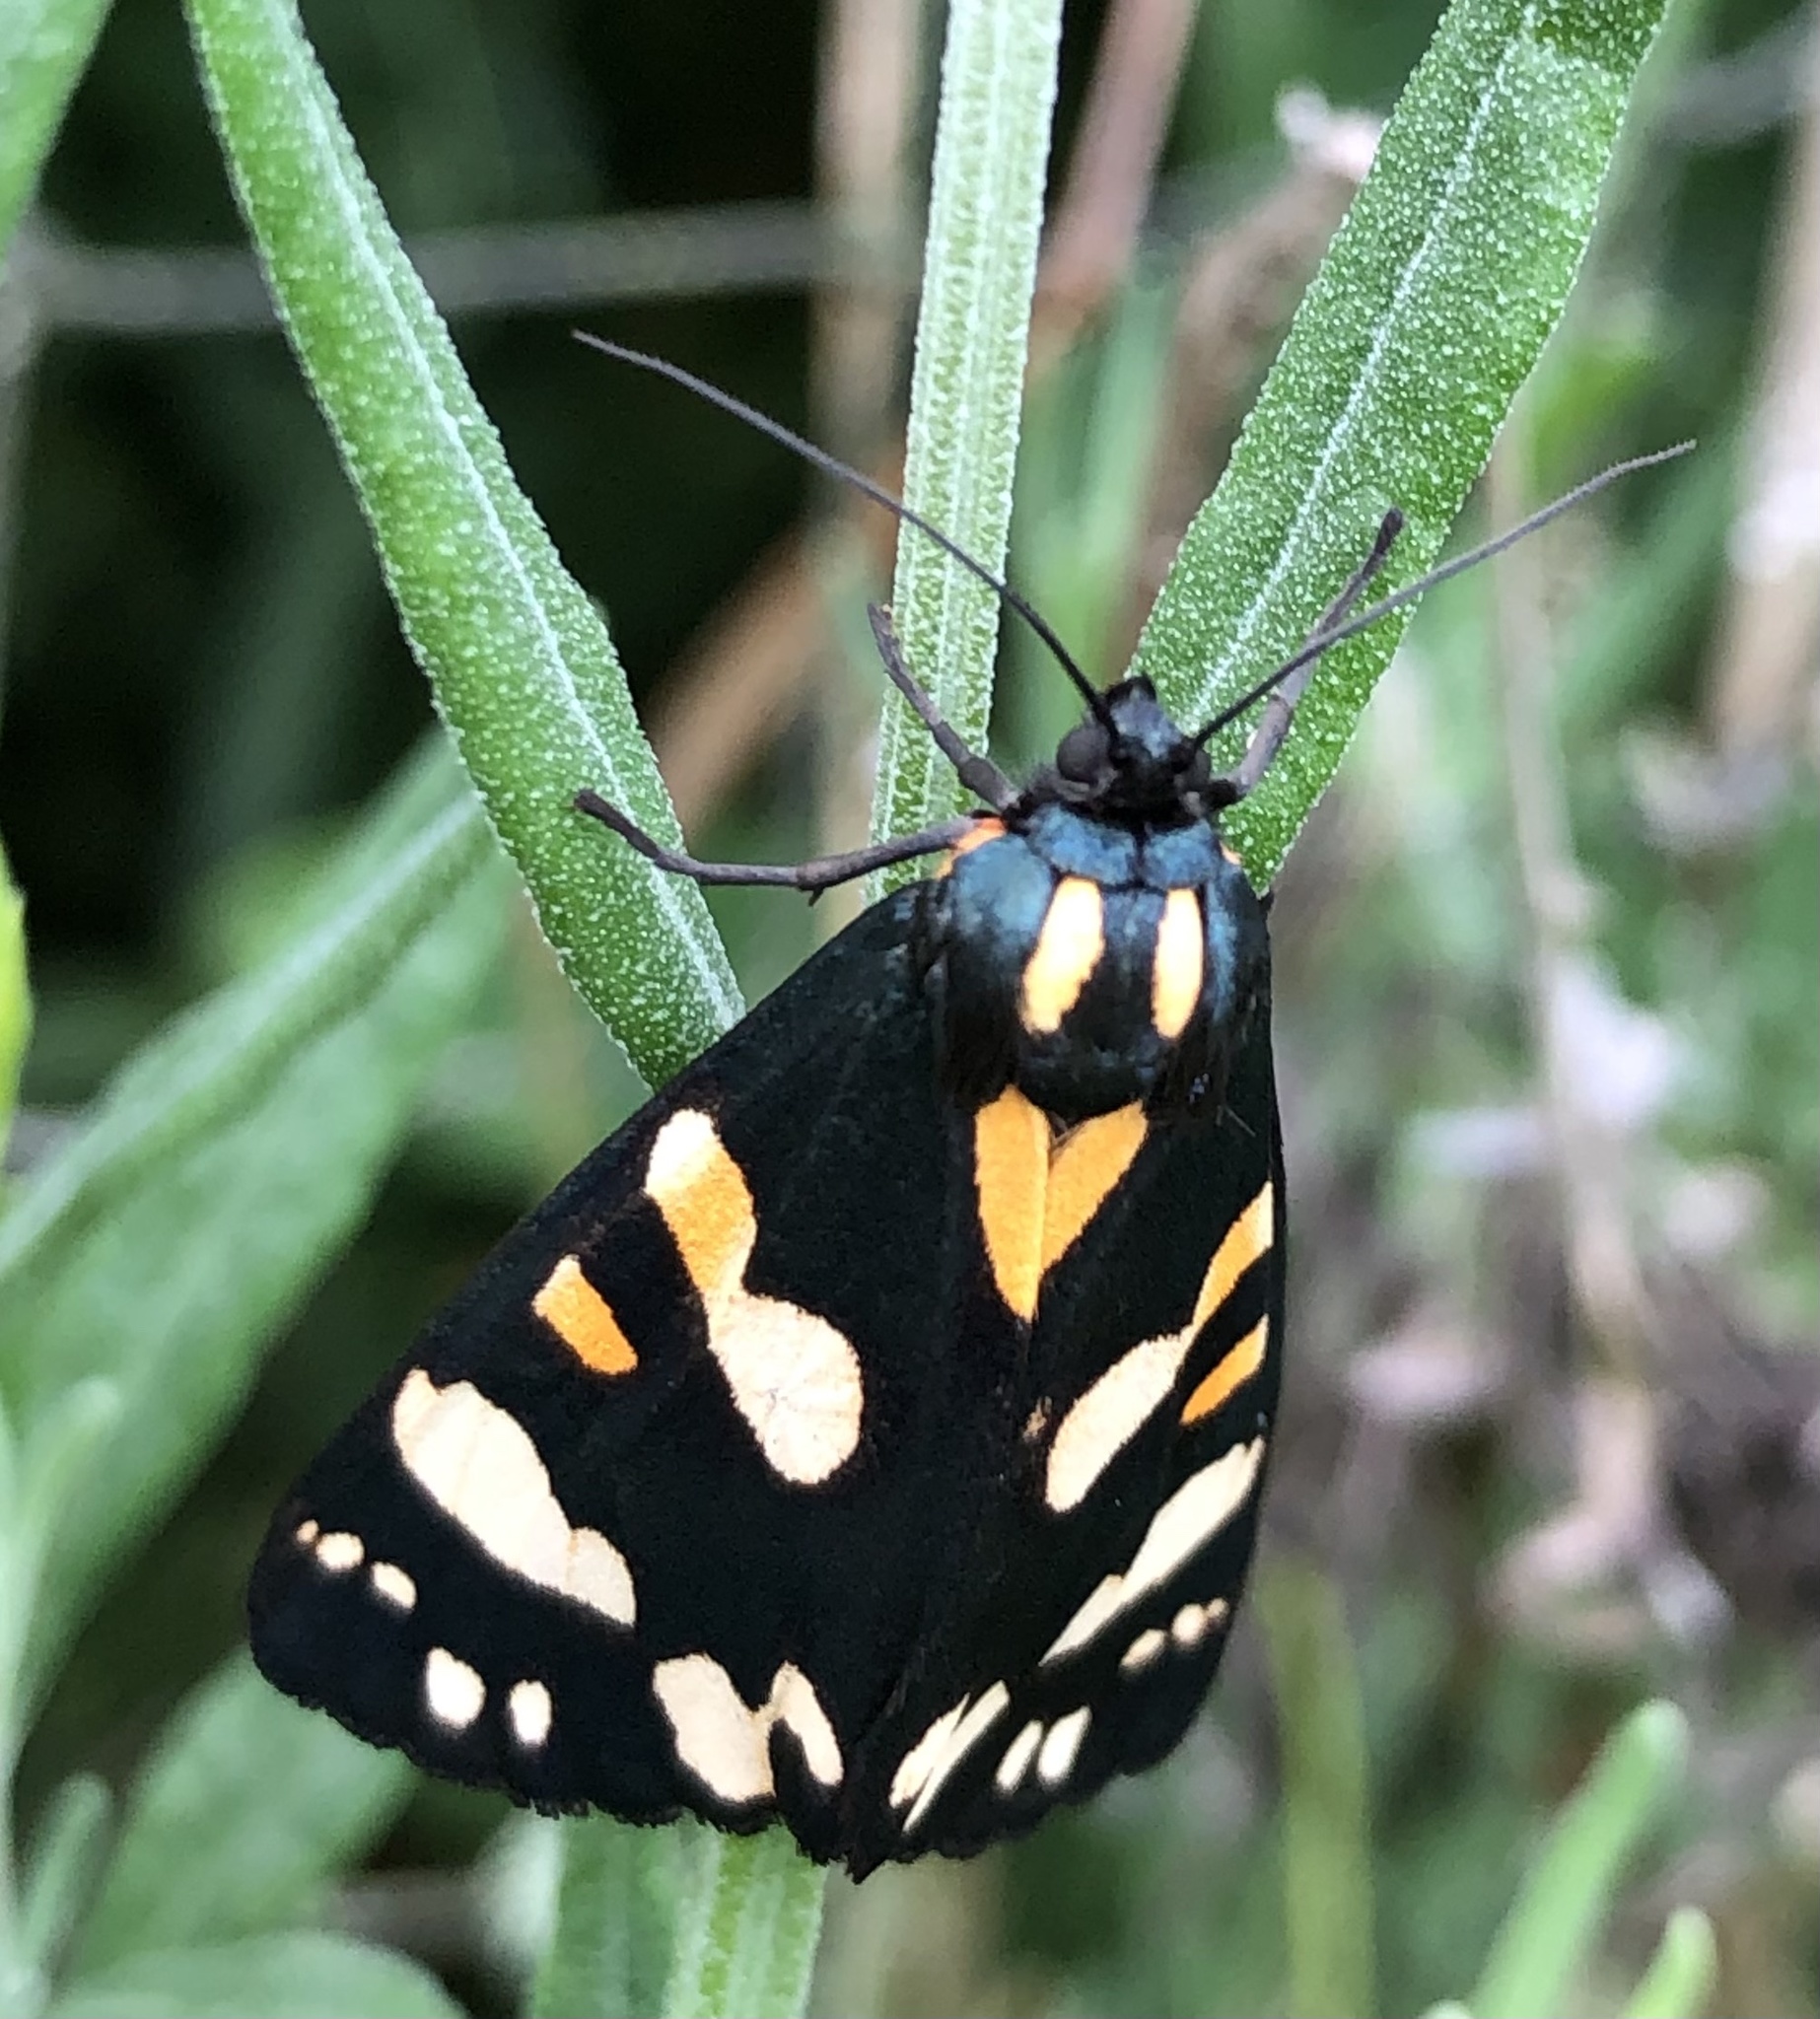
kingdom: Animalia
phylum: Arthropoda
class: Insecta
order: Lepidoptera
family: Erebidae
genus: Callimorpha
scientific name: Callimorpha dominula
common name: Scarlet tiger
